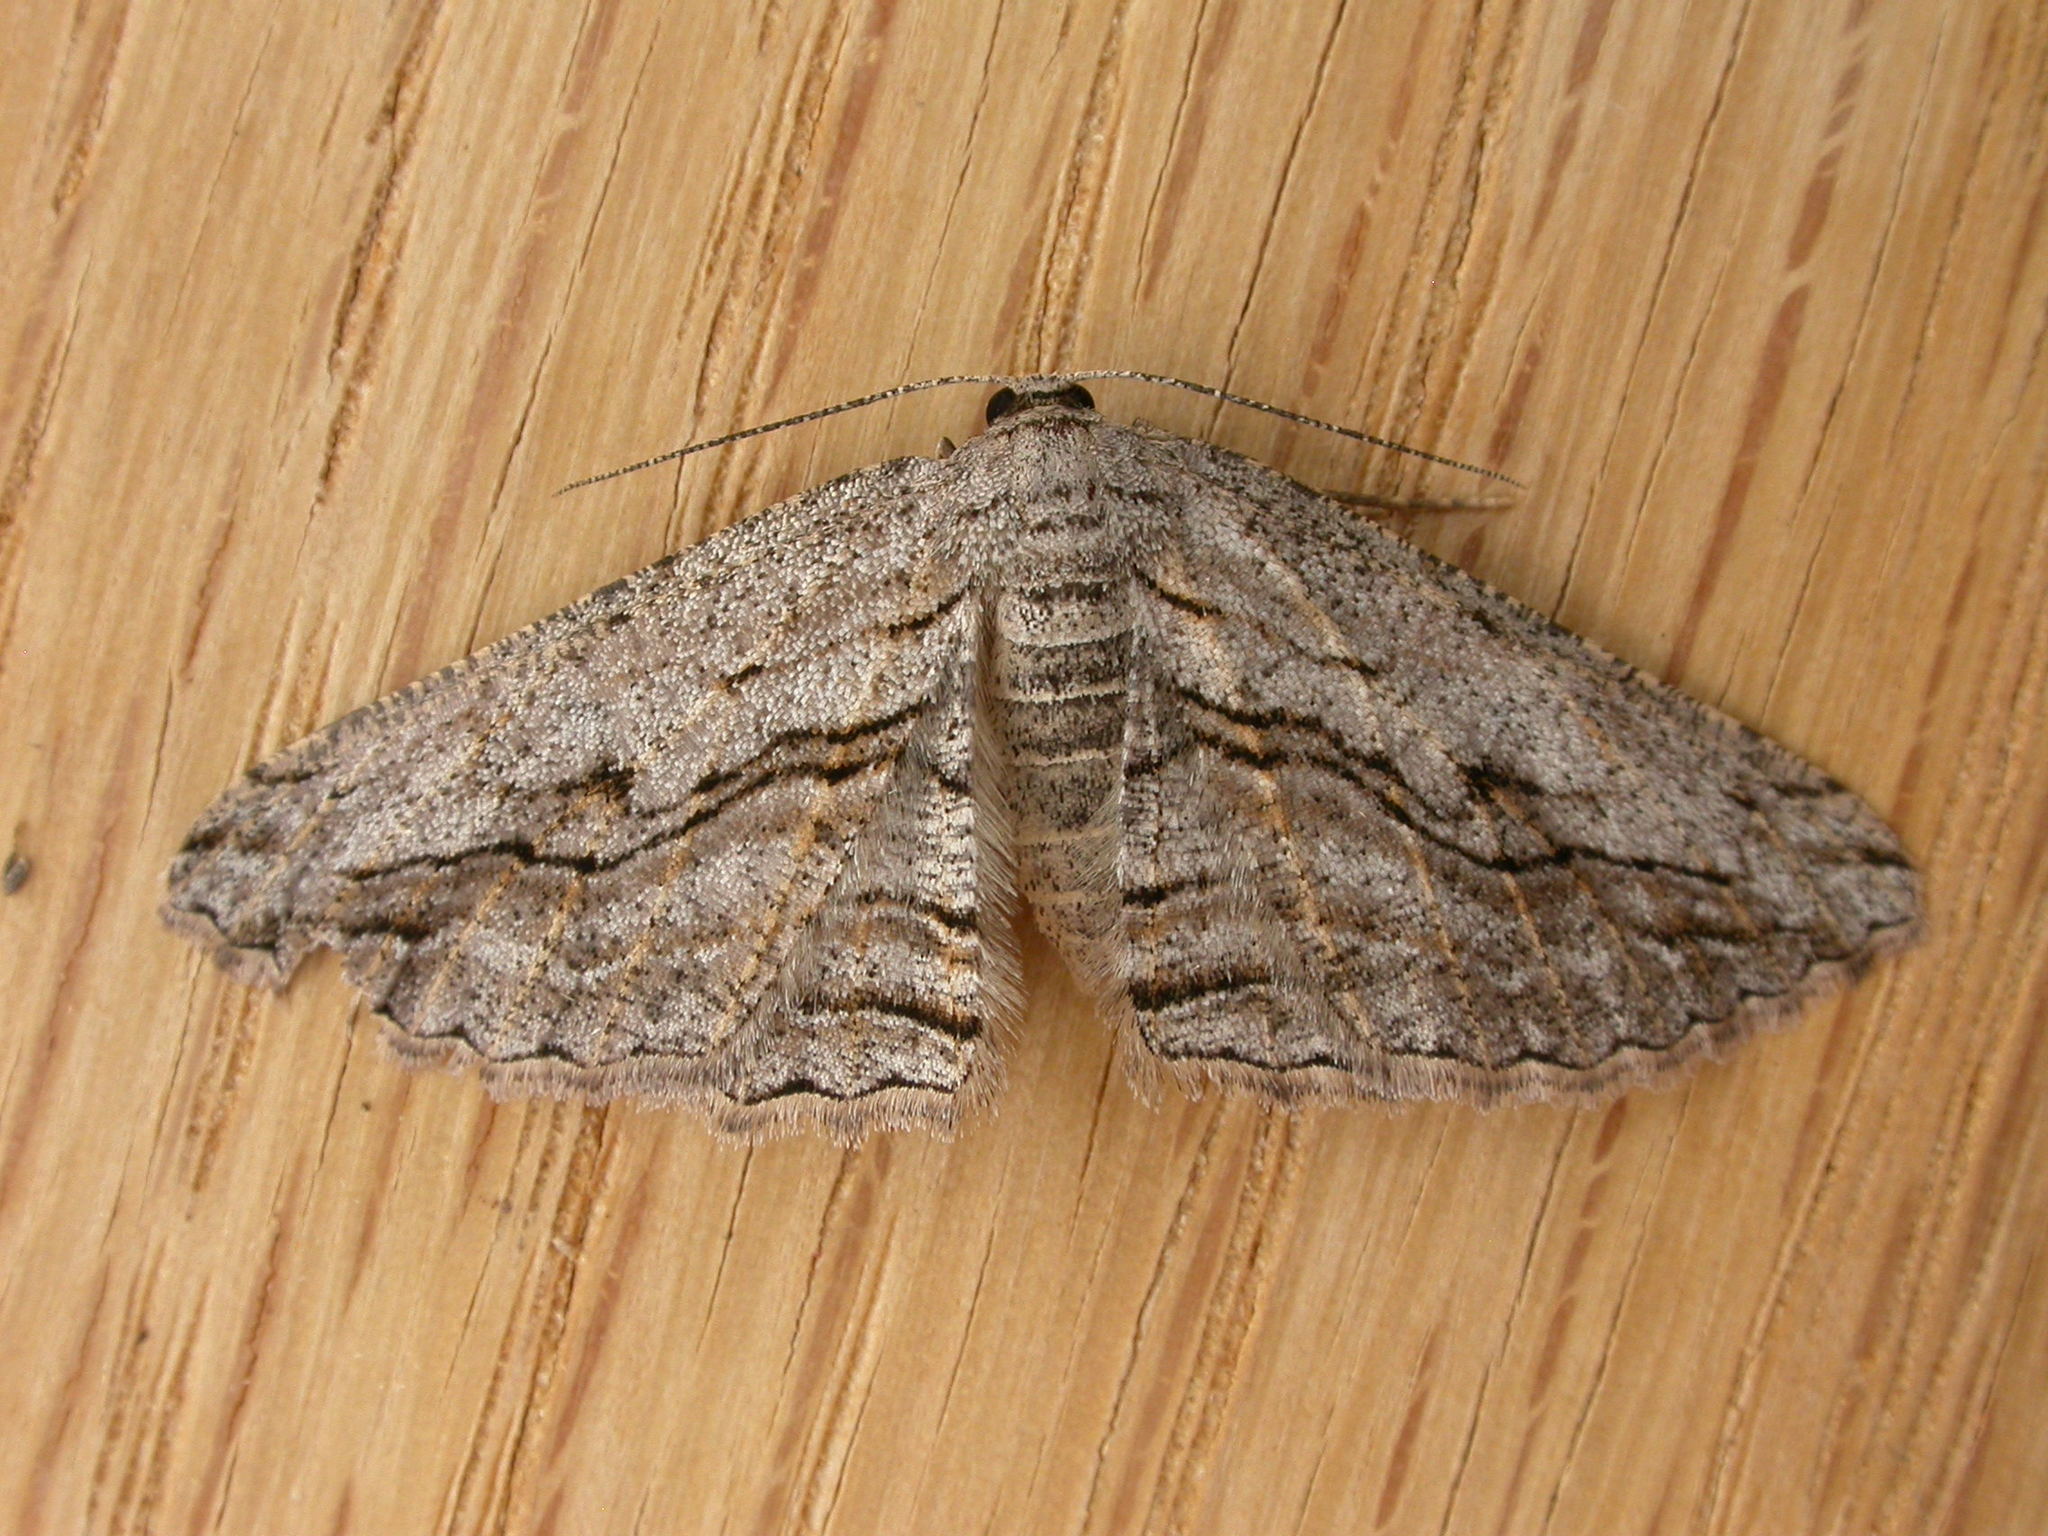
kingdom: Animalia
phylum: Arthropoda
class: Insecta
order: Lepidoptera
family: Geometridae
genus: Scioglyptis
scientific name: Scioglyptis loxographa
